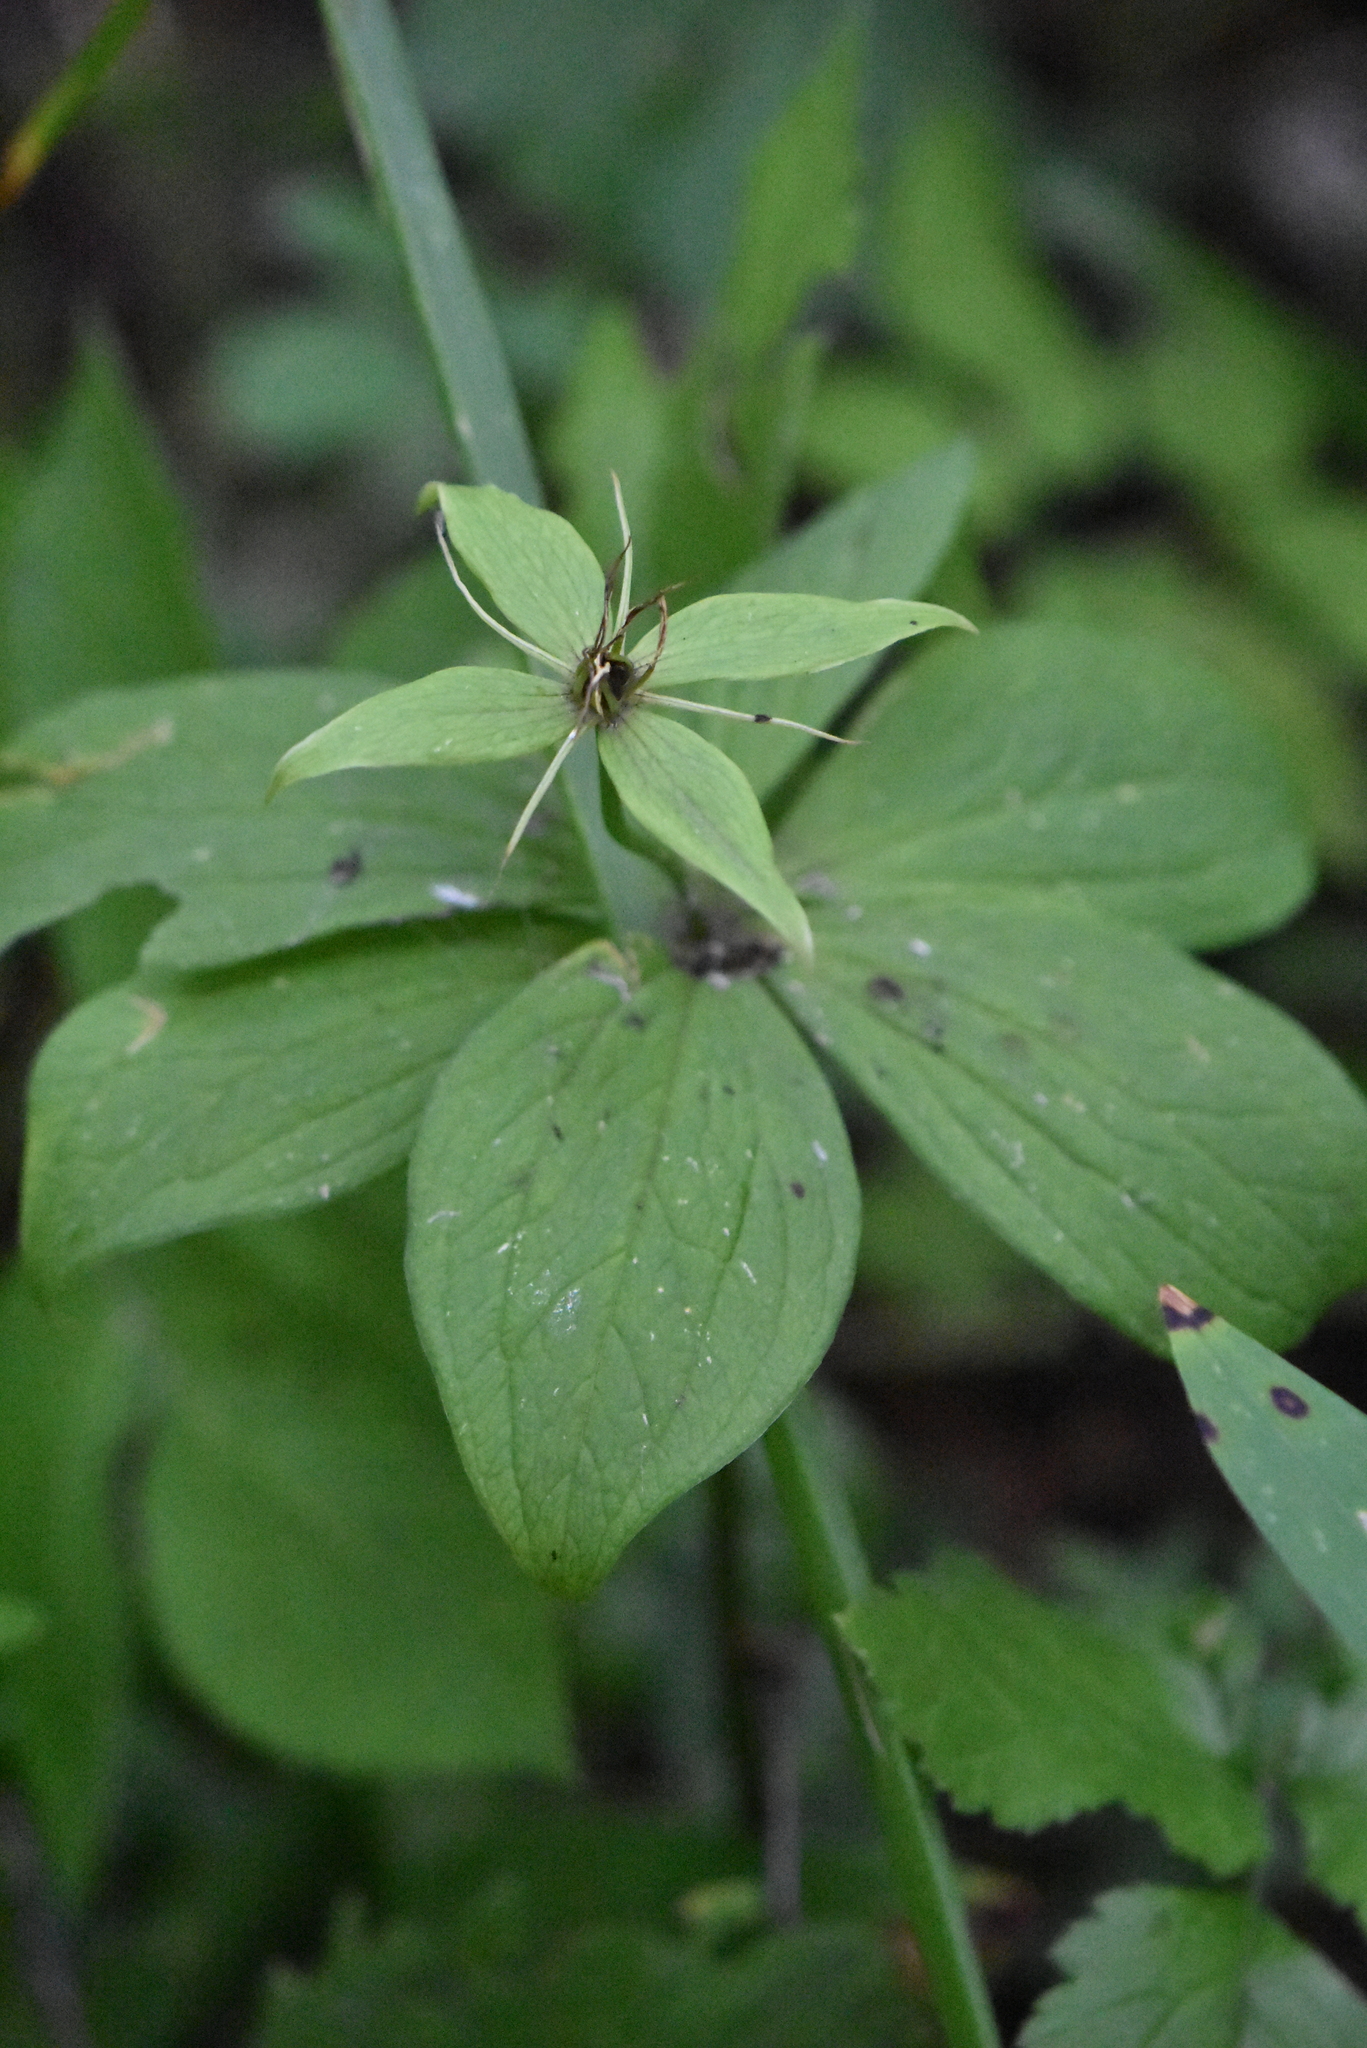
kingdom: Plantae
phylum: Tracheophyta
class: Liliopsida
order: Liliales
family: Melanthiaceae
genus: Paris
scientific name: Paris quadrifolia
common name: Herb-paris
